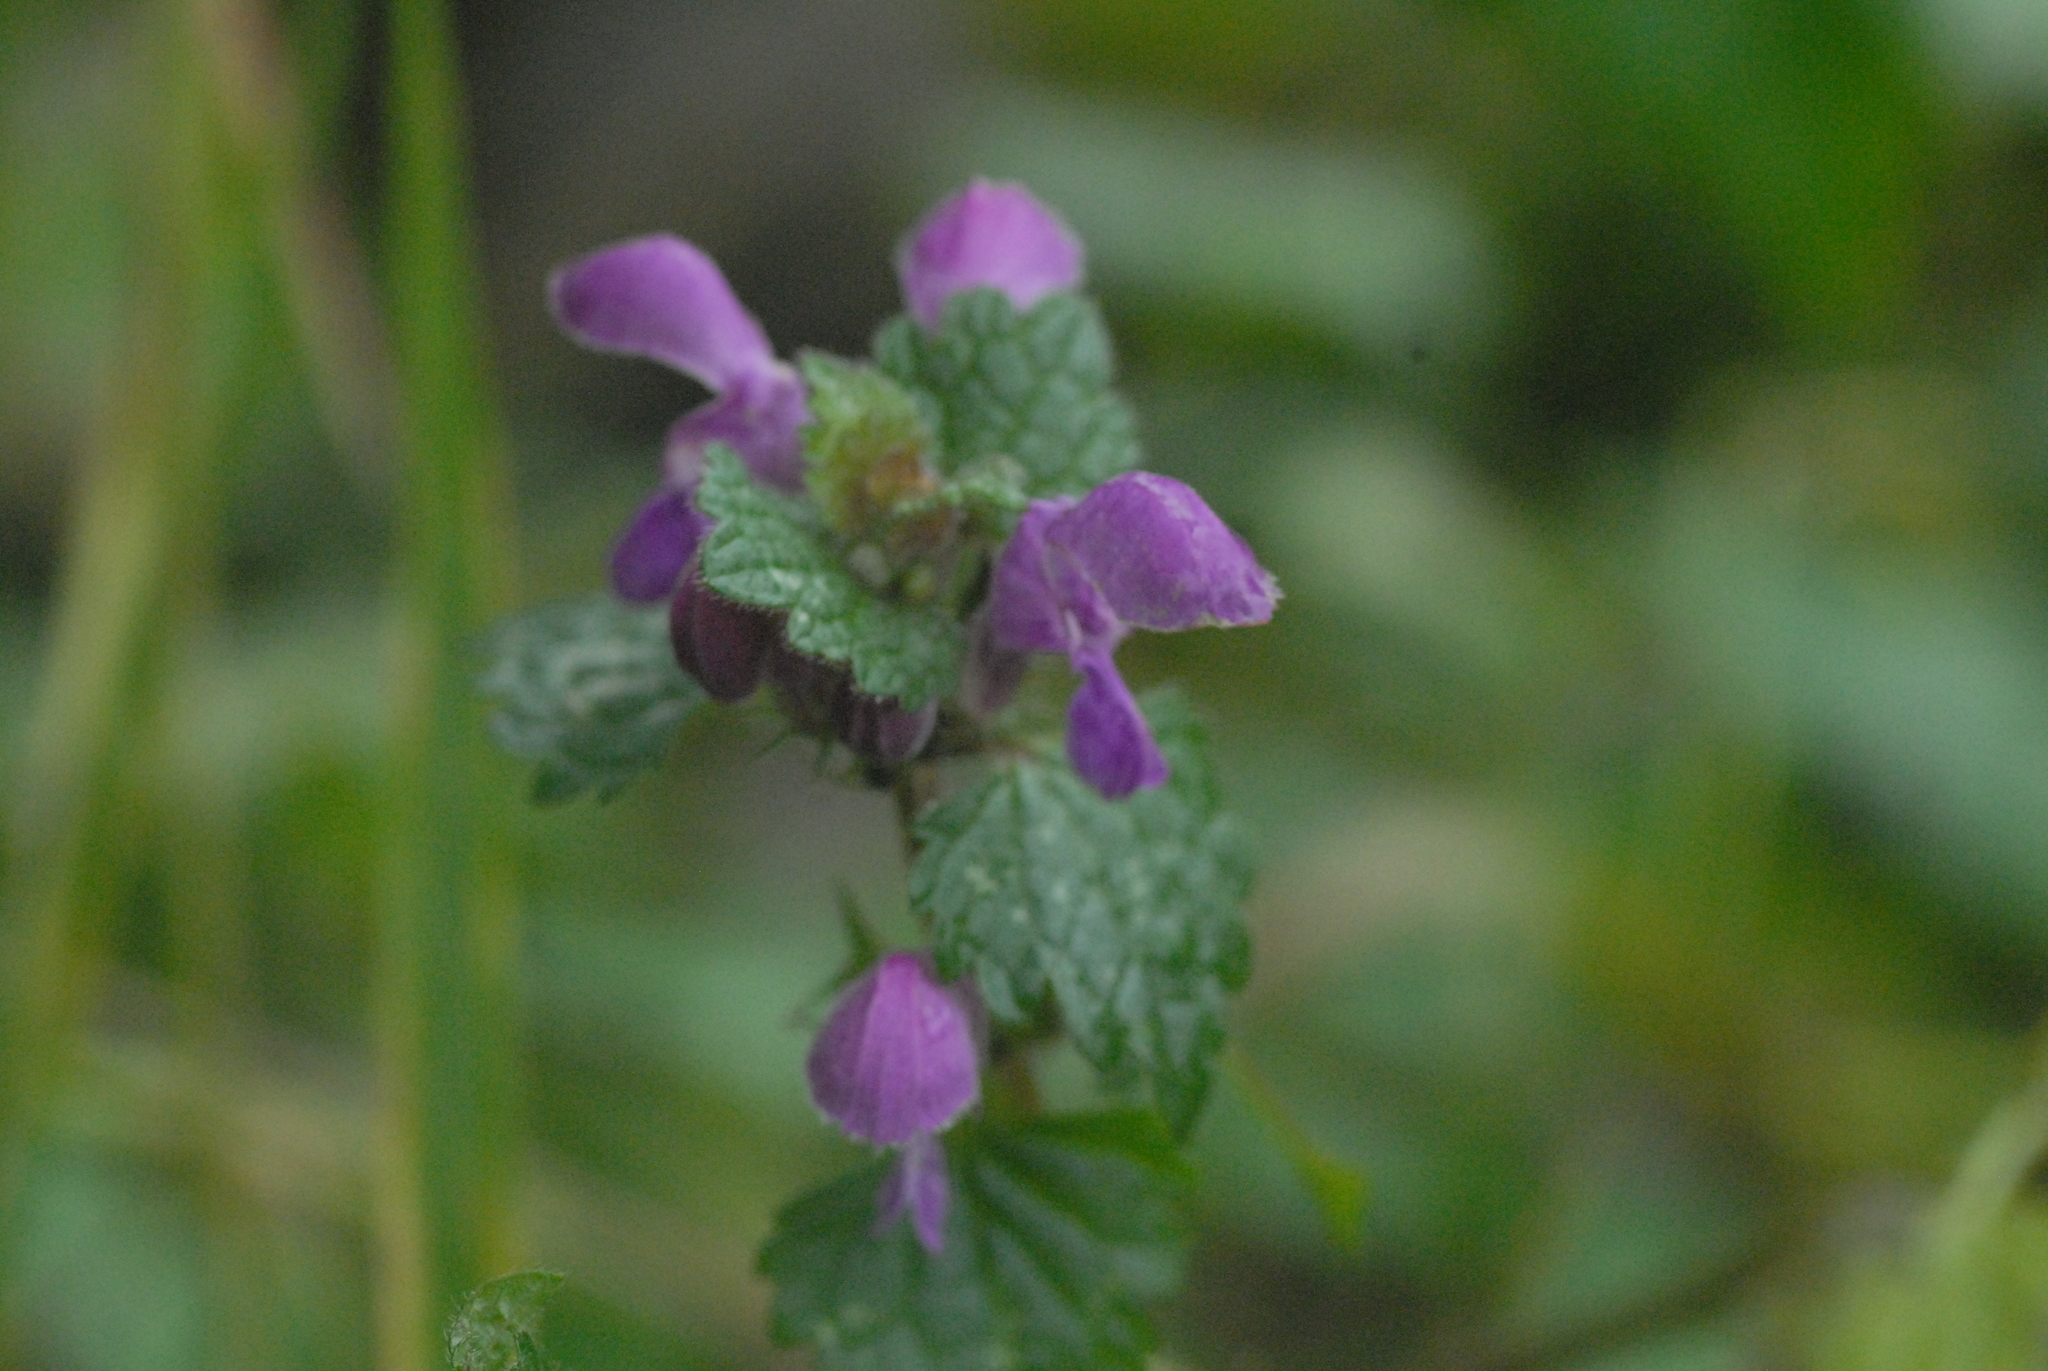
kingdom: Plantae
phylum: Tracheophyta
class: Magnoliopsida
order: Lamiales
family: Lamiaceae
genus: Lamium
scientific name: Lamium maculatum
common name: Spotted dead-nettle
